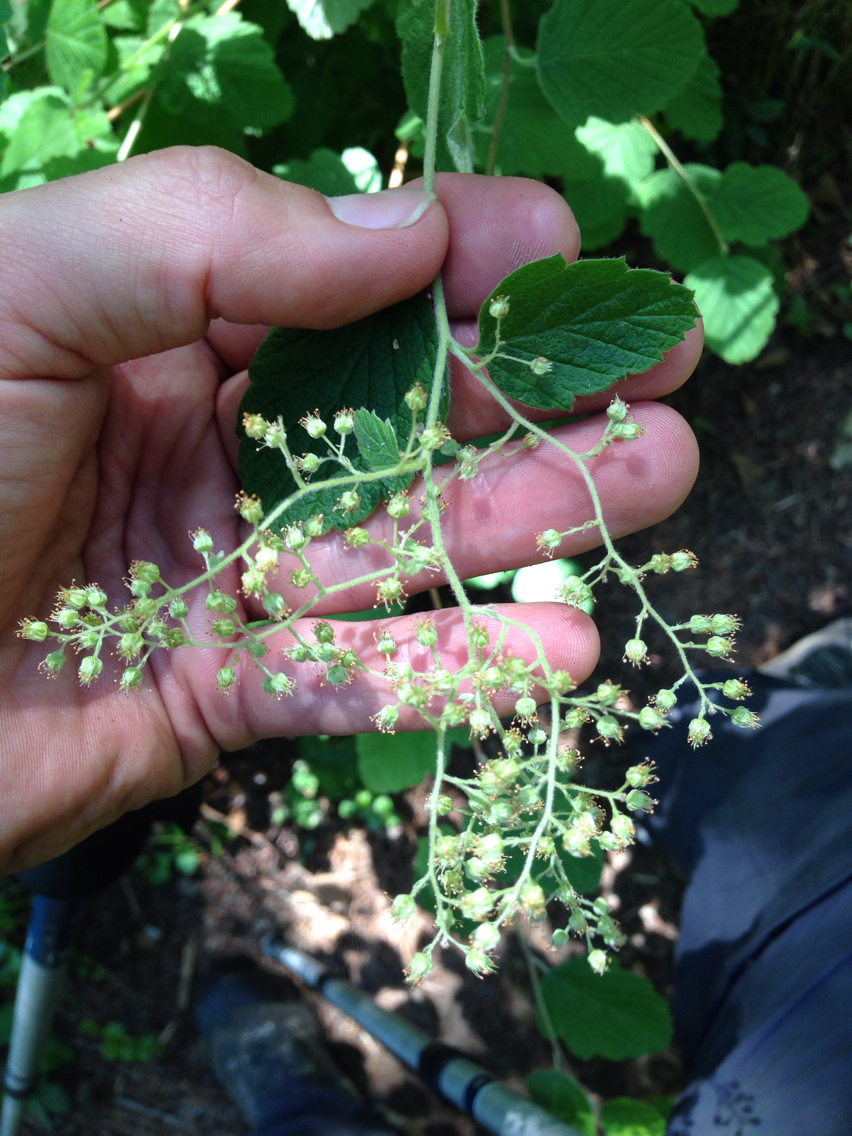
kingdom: Plantae
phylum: Tracheophyta
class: Magnoliopsida
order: Rosales
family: Rosaceae
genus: Holodiscus
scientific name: Holodiscus discolor
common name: Oceanspray
